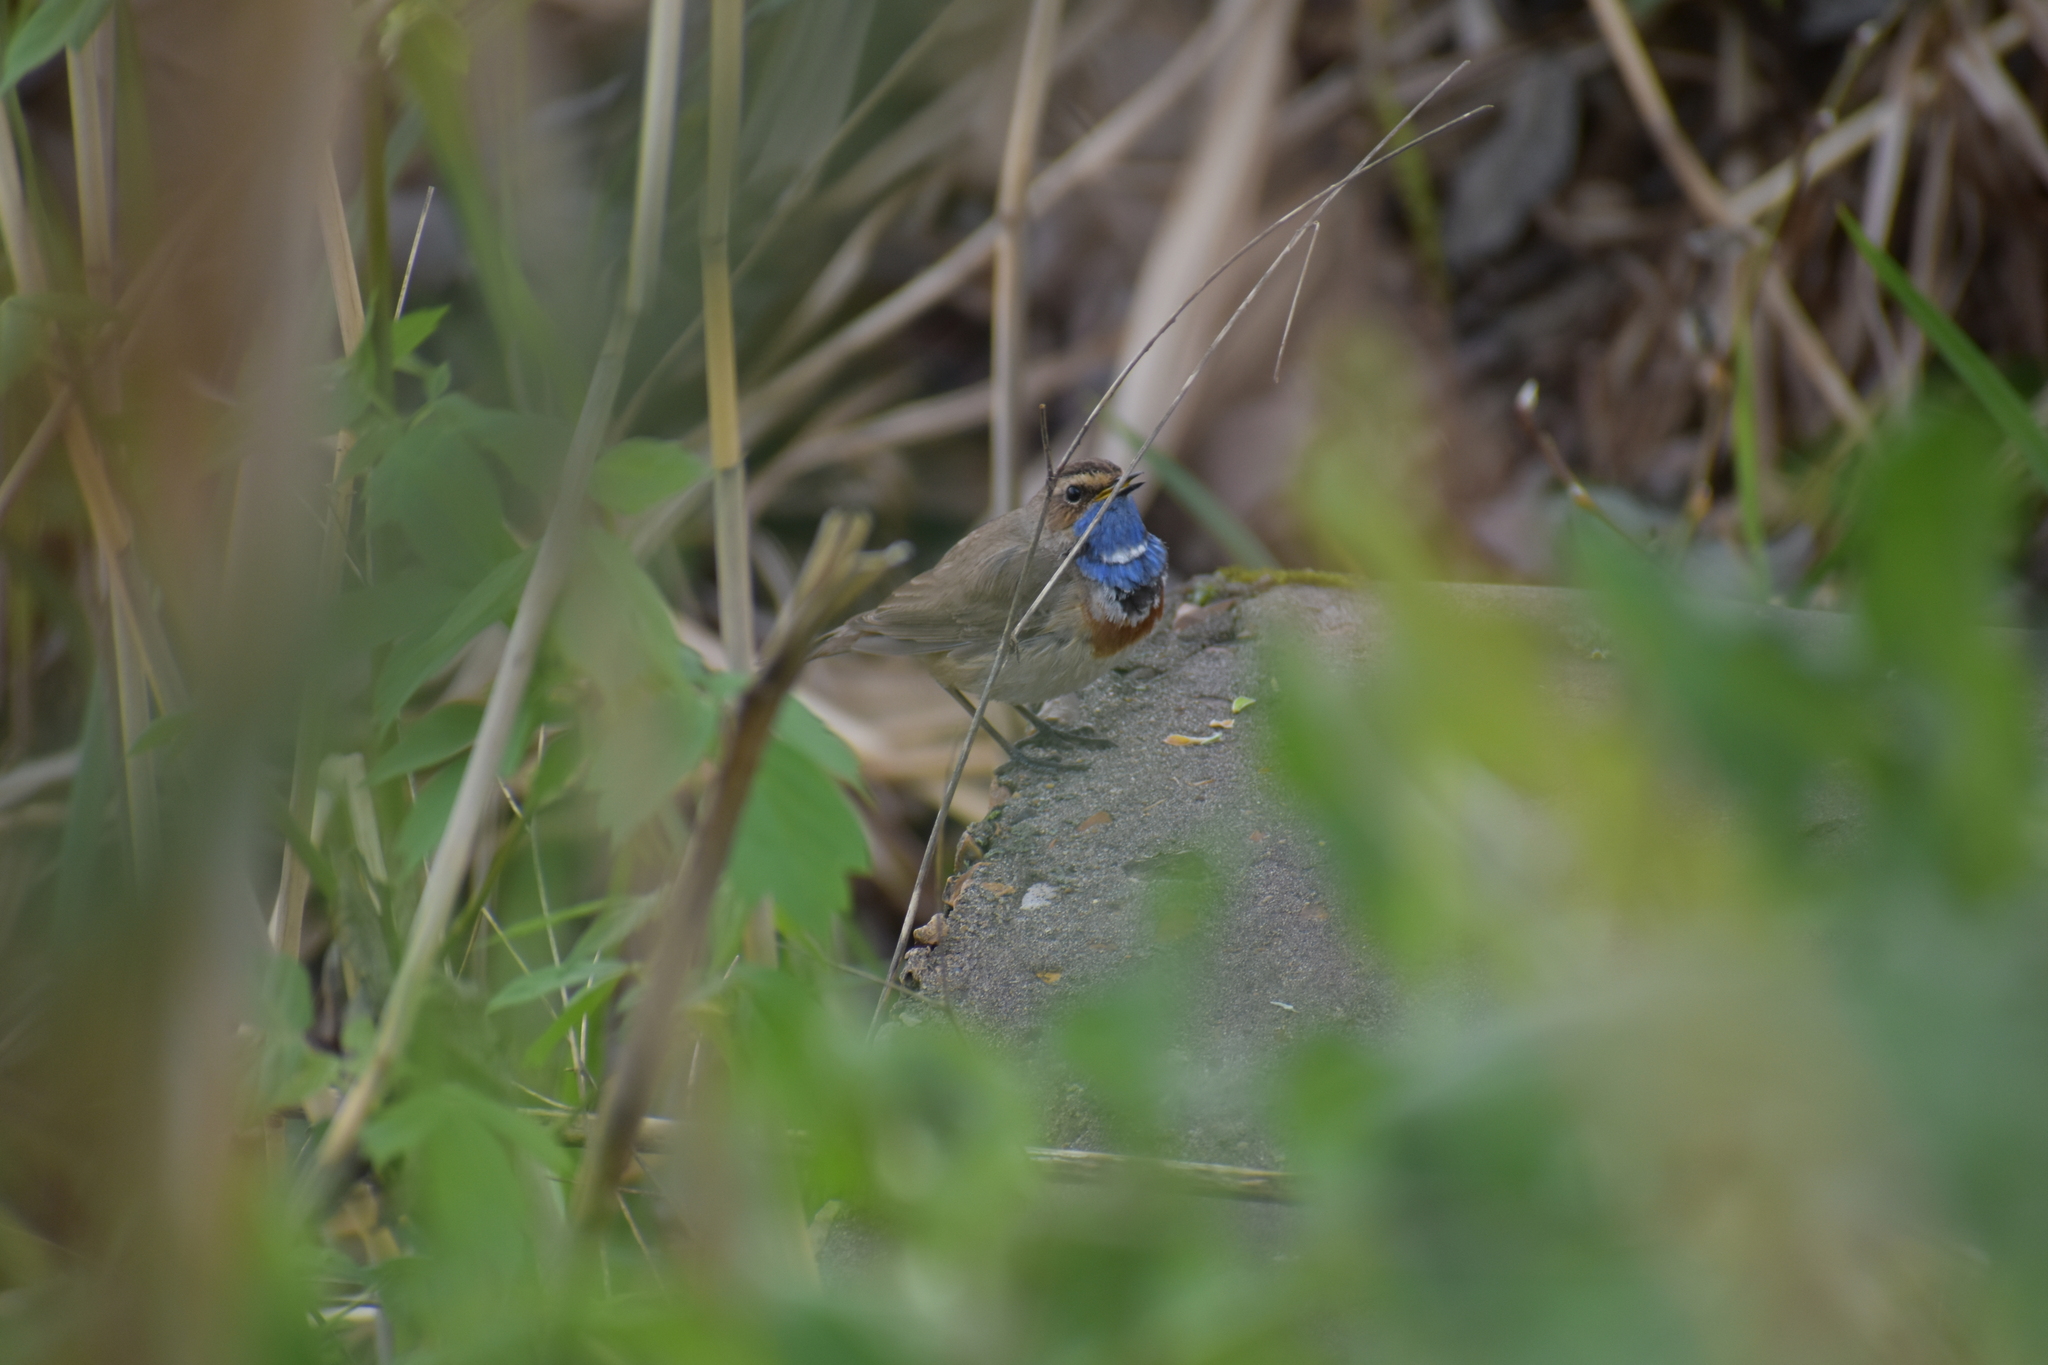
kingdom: Animalia
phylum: Chordata
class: Aves
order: Passeriformes
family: Muscicapidae
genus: Luscinia
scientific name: Luscinia svecica
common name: Bluethroat
